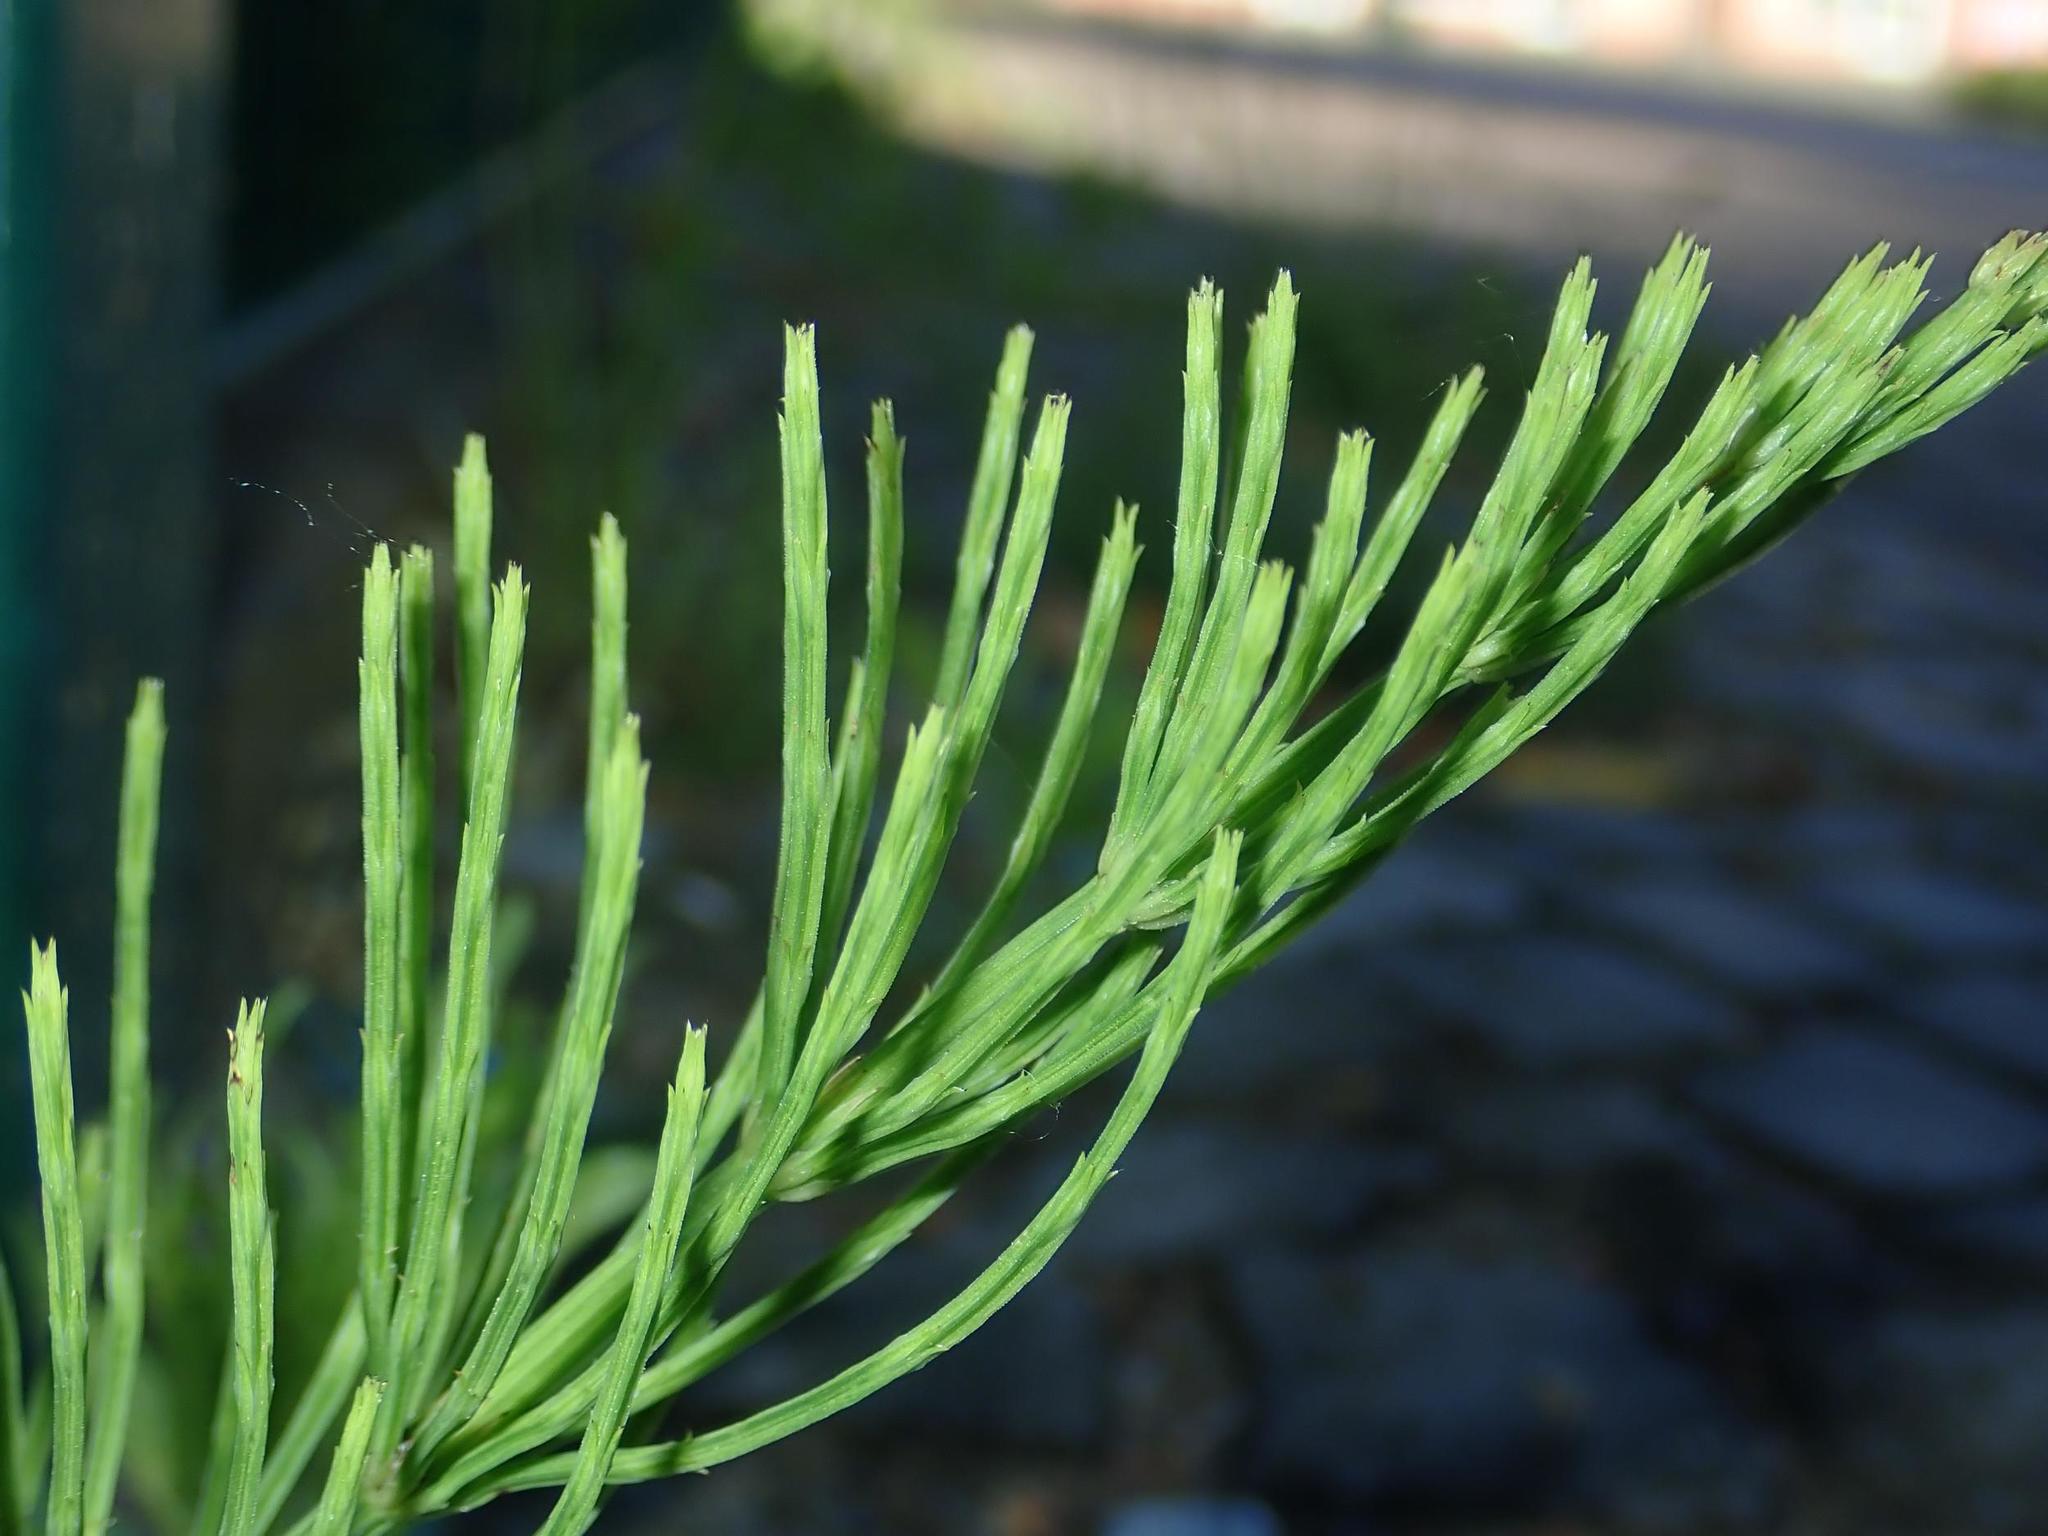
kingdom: Plantae
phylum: Tracheophyta
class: Polypodiopsida
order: Equisetales
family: Equisetaceae
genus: Equisetum
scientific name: Equisetum arvense
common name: Field horsetail
